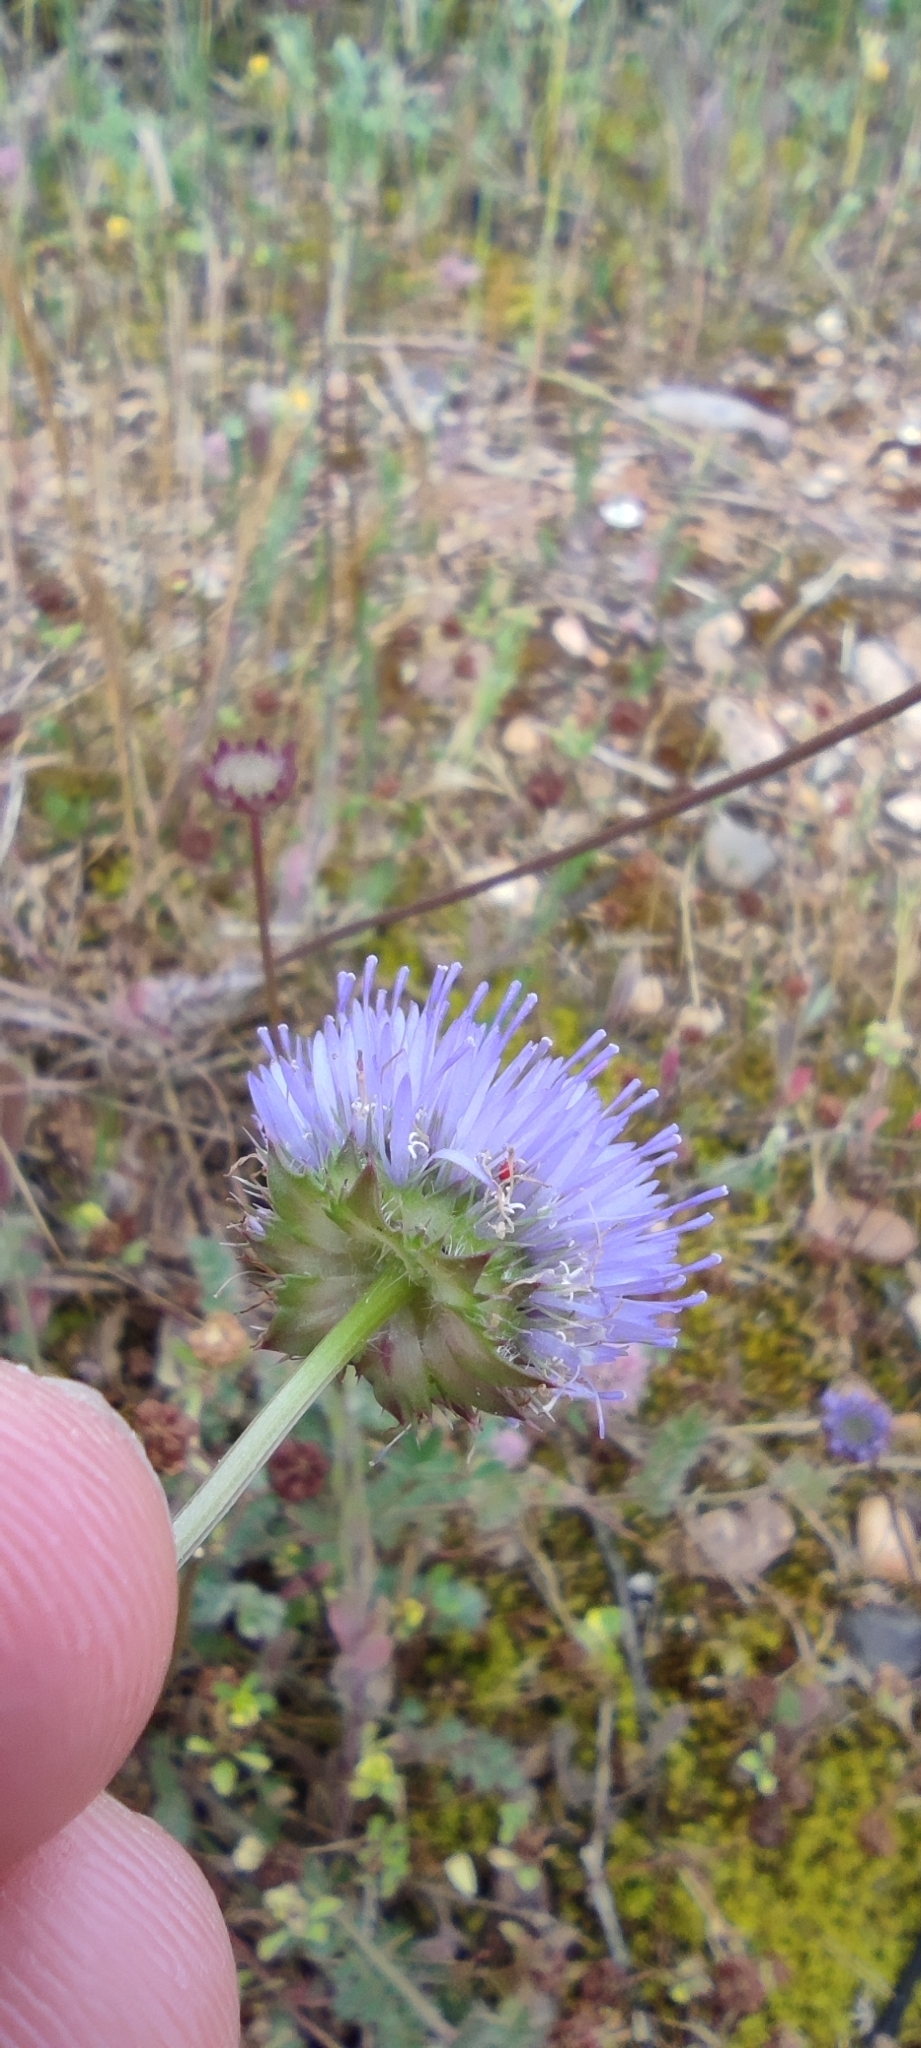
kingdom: Plantae
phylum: Tracheophyta
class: Magnoliopsida
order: Asterales
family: Campanulaceae
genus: Jasione
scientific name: Jasione montana
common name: Sheep's-bit
